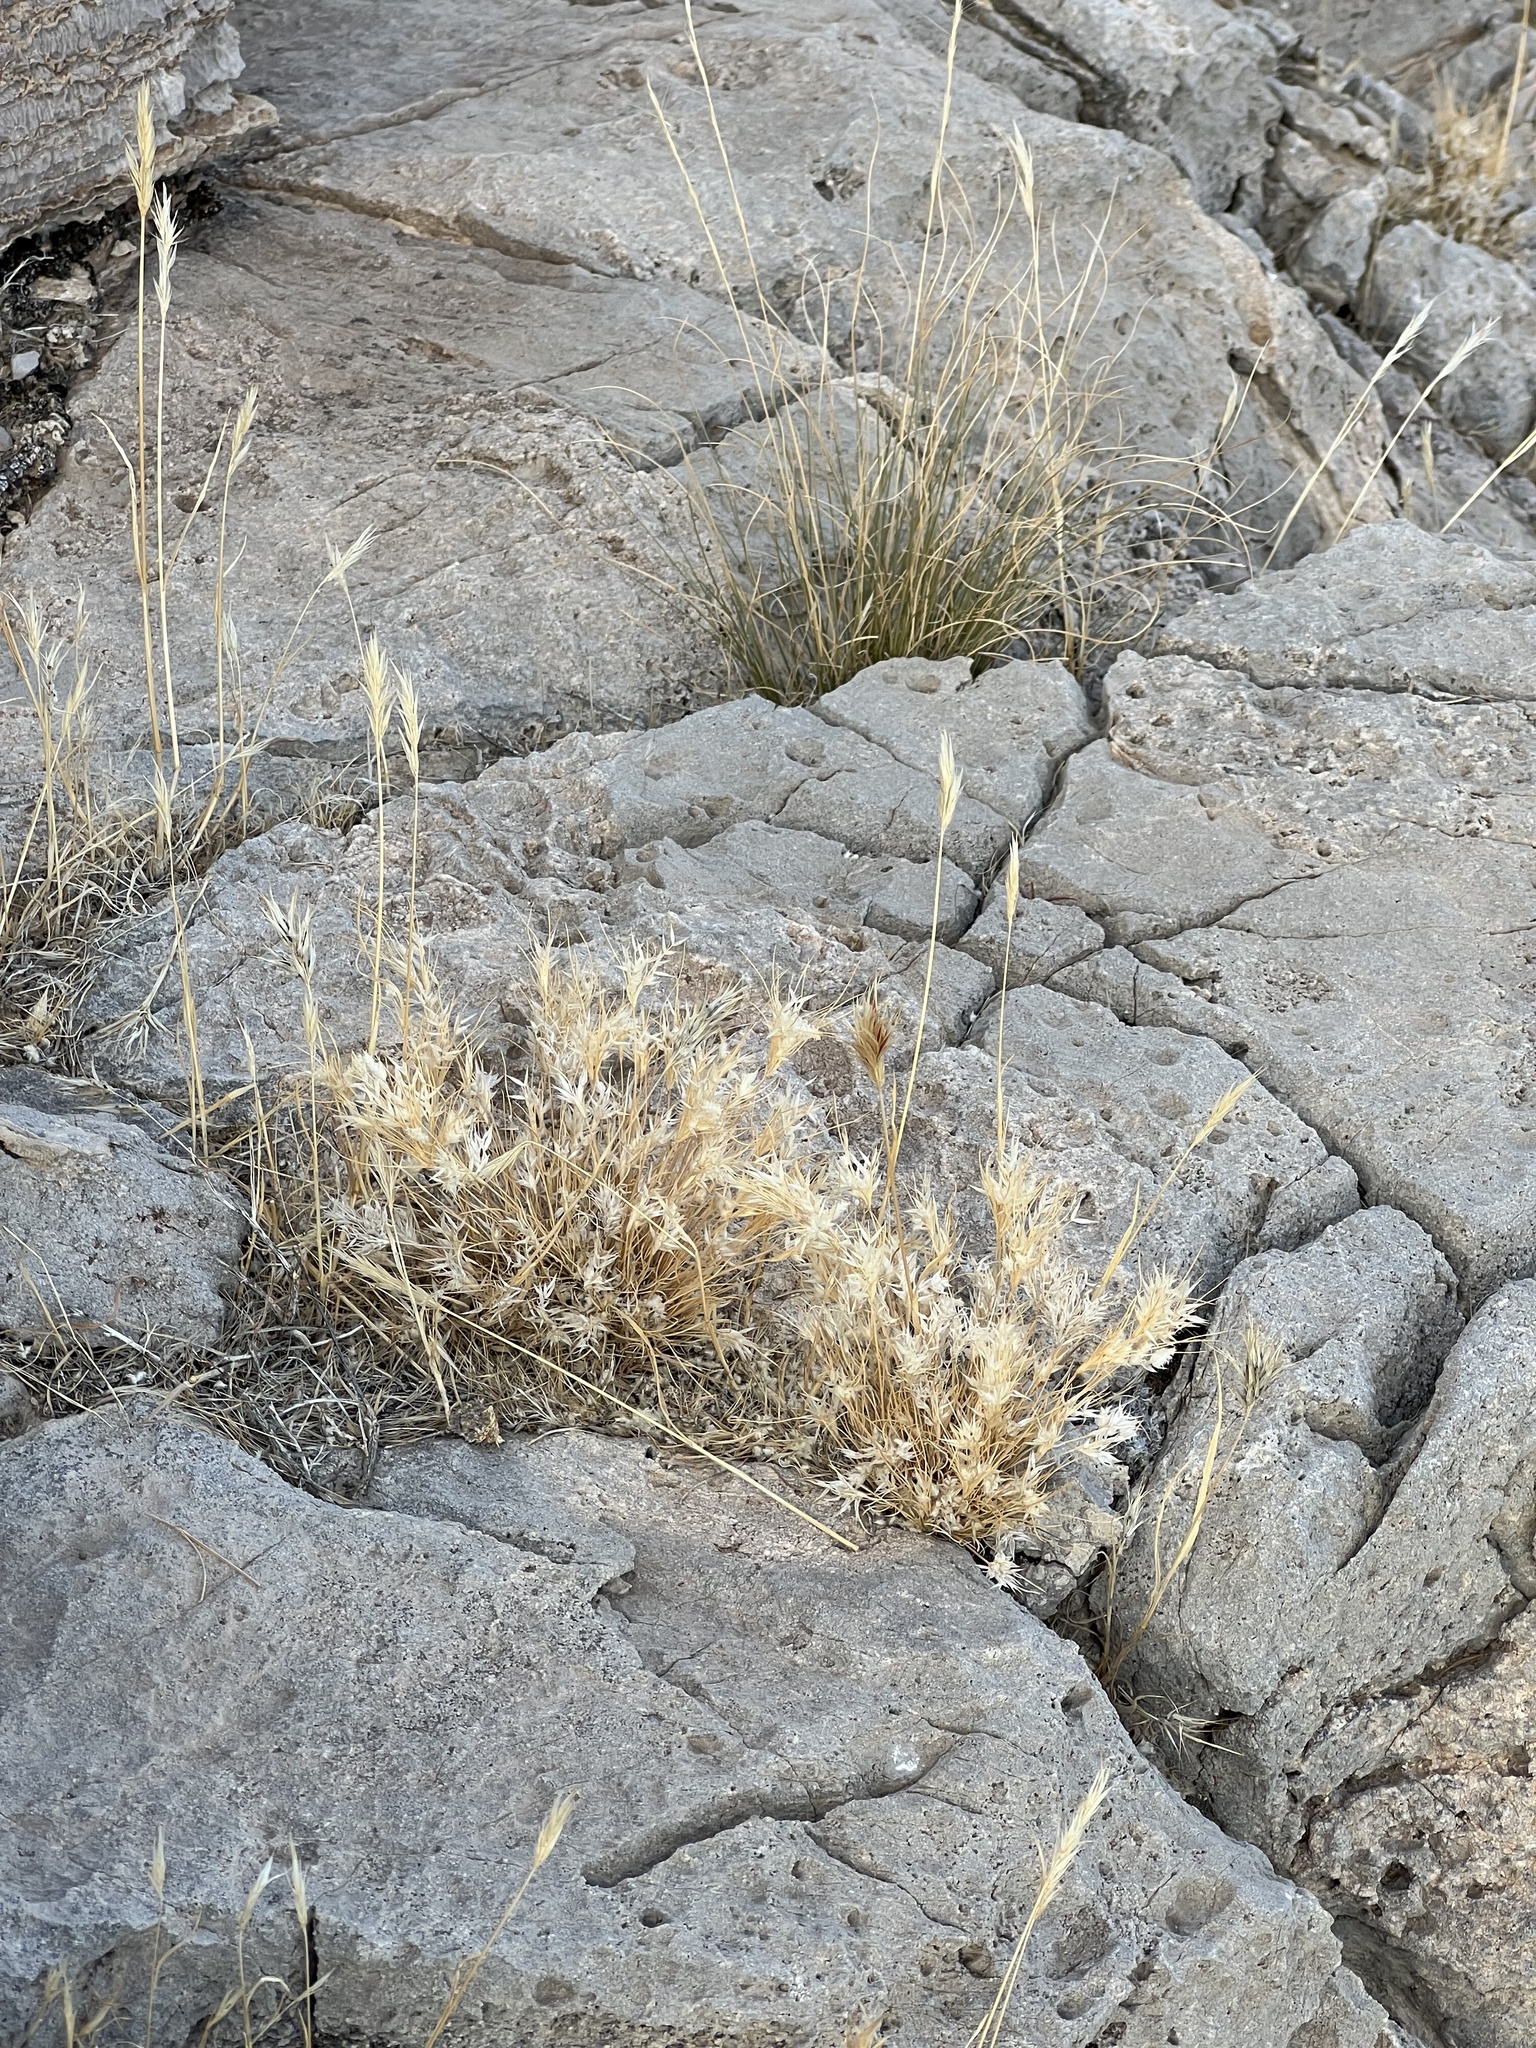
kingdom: Plantae
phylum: Tracheophyta
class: Liliopsida
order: Poales
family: Poaceae
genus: Dasyochloa
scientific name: Dasyochloa pulchella
